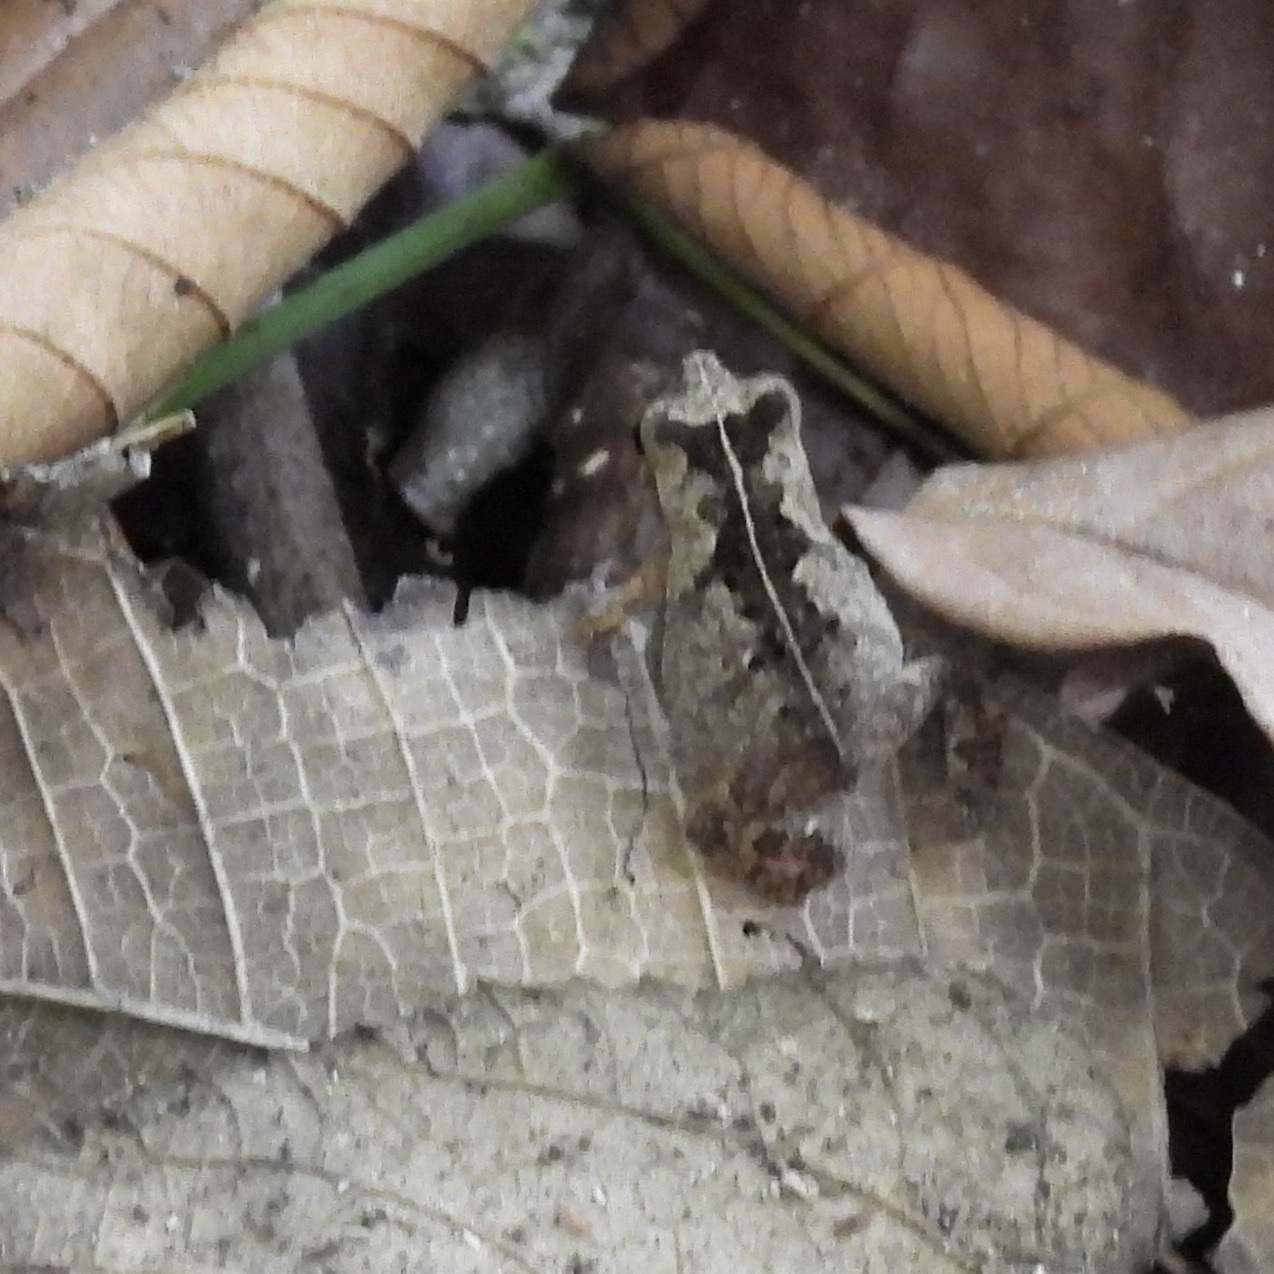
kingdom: Animalia
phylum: Chordata
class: Amphibia
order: Anura
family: Bufonidae
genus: Rhinella
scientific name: Rhinella alata
